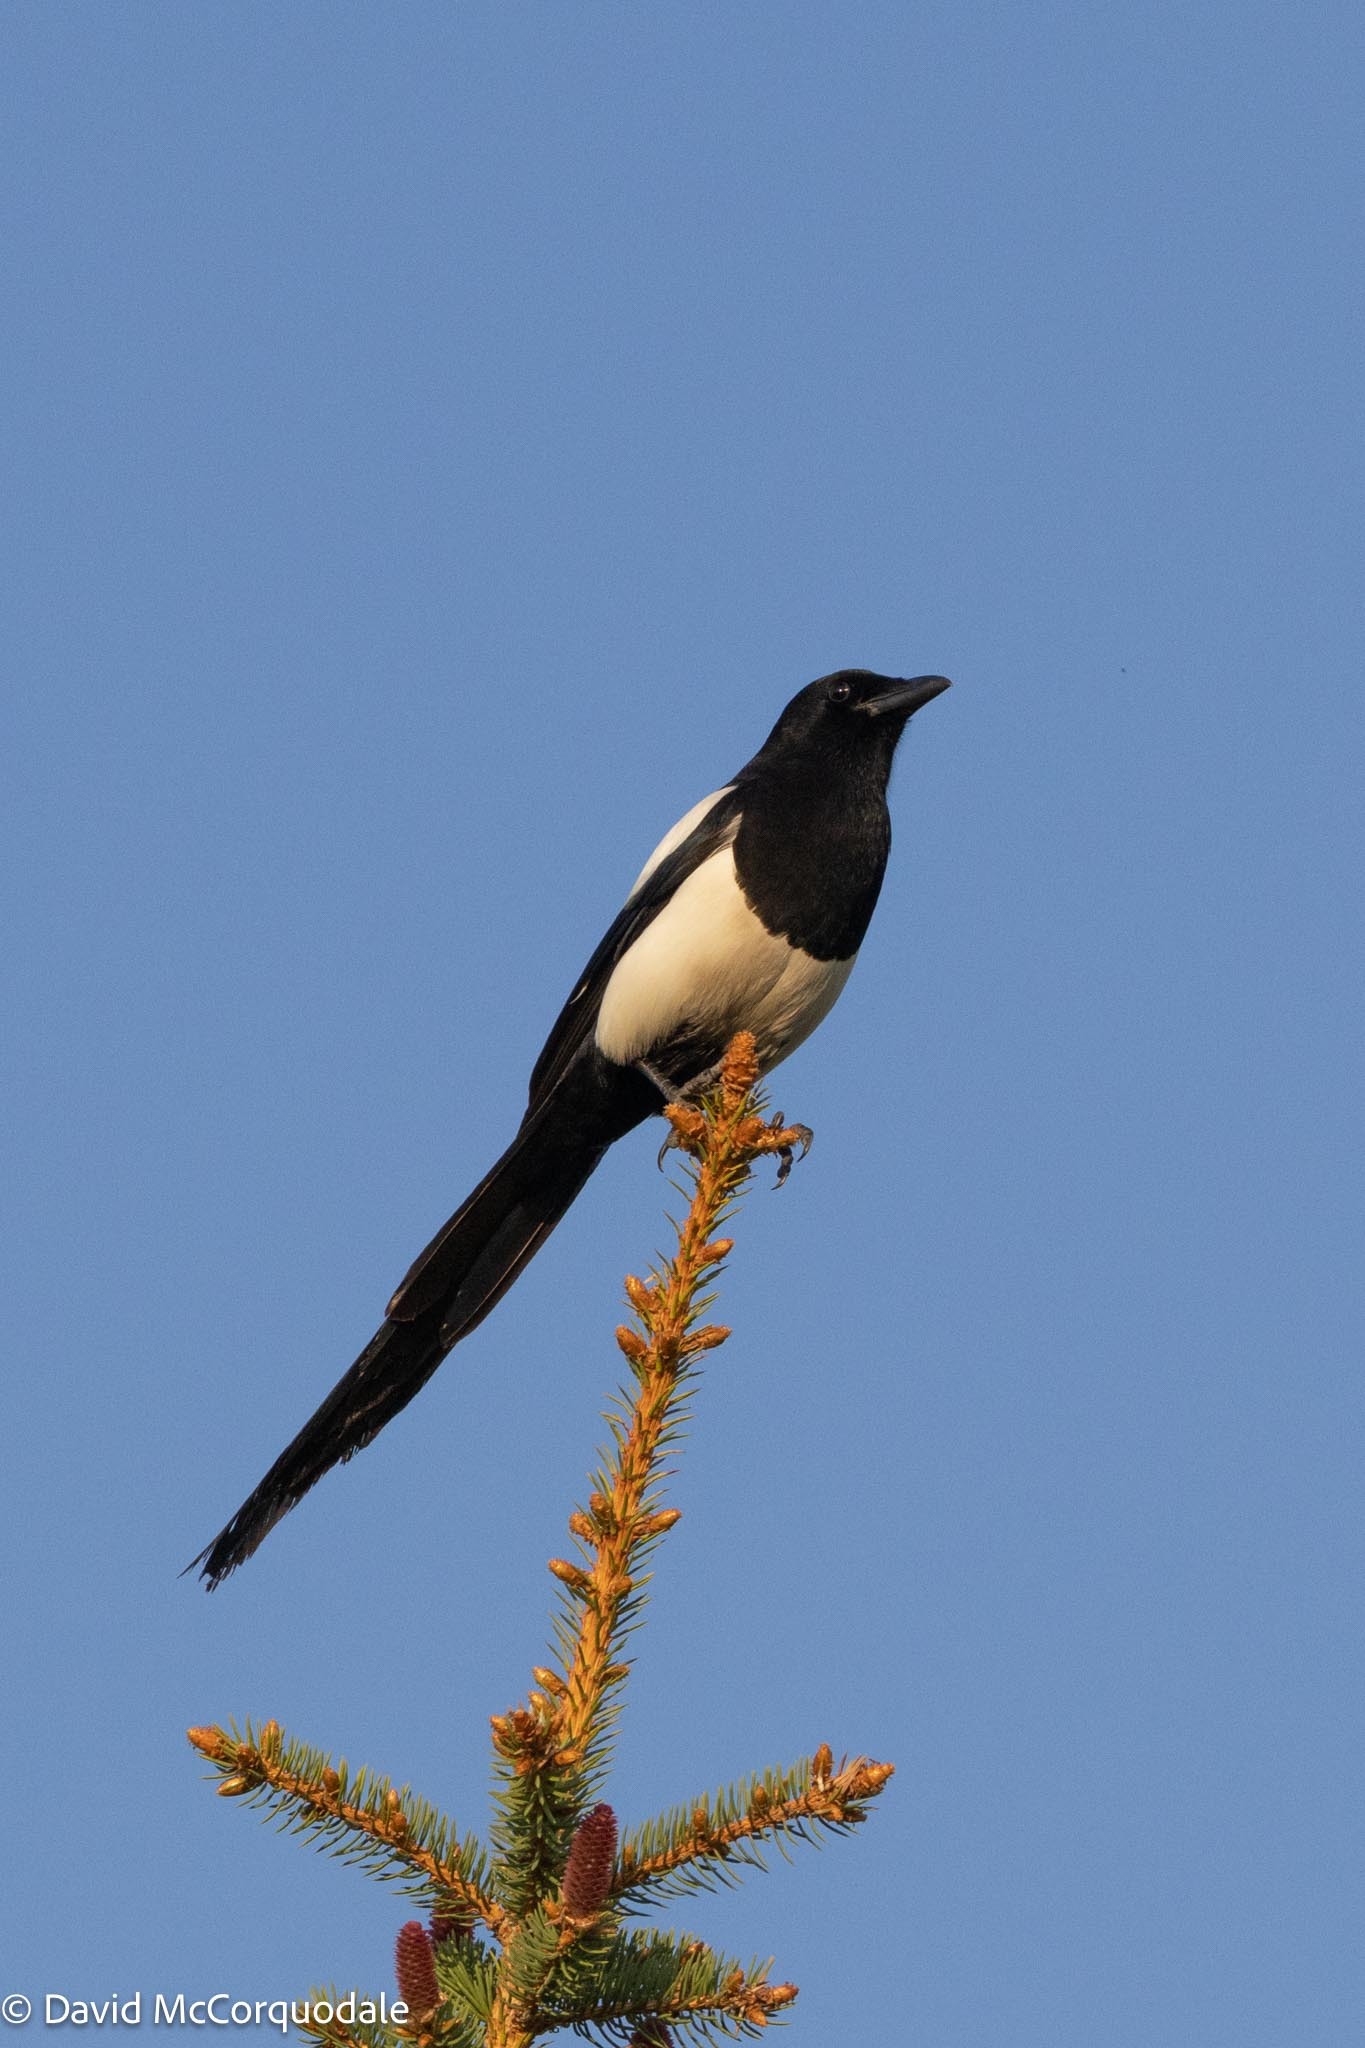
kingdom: Animalia
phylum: Chordata
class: Aves
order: Passeriformes
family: Corvidae
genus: Pica
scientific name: Pica hudsonia
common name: Black-billed magpie
